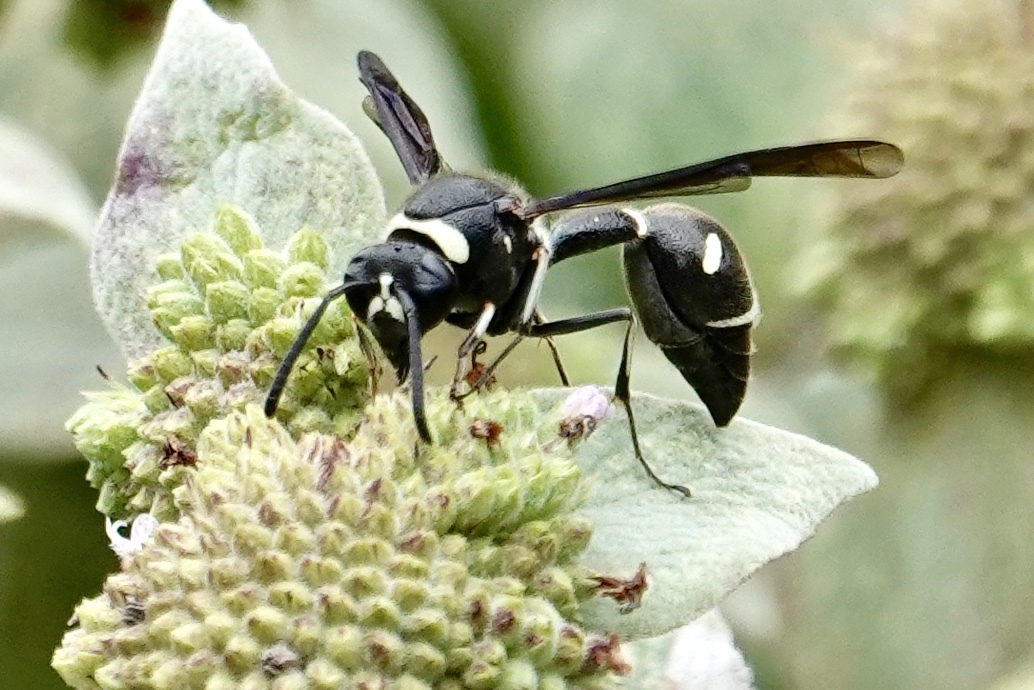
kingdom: Animalia
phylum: Arthropoda
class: Insecta
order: Hymenoptera
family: Vespidae
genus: Eumenes
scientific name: Eumenes fraternus
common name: Fraternal potter wasp
